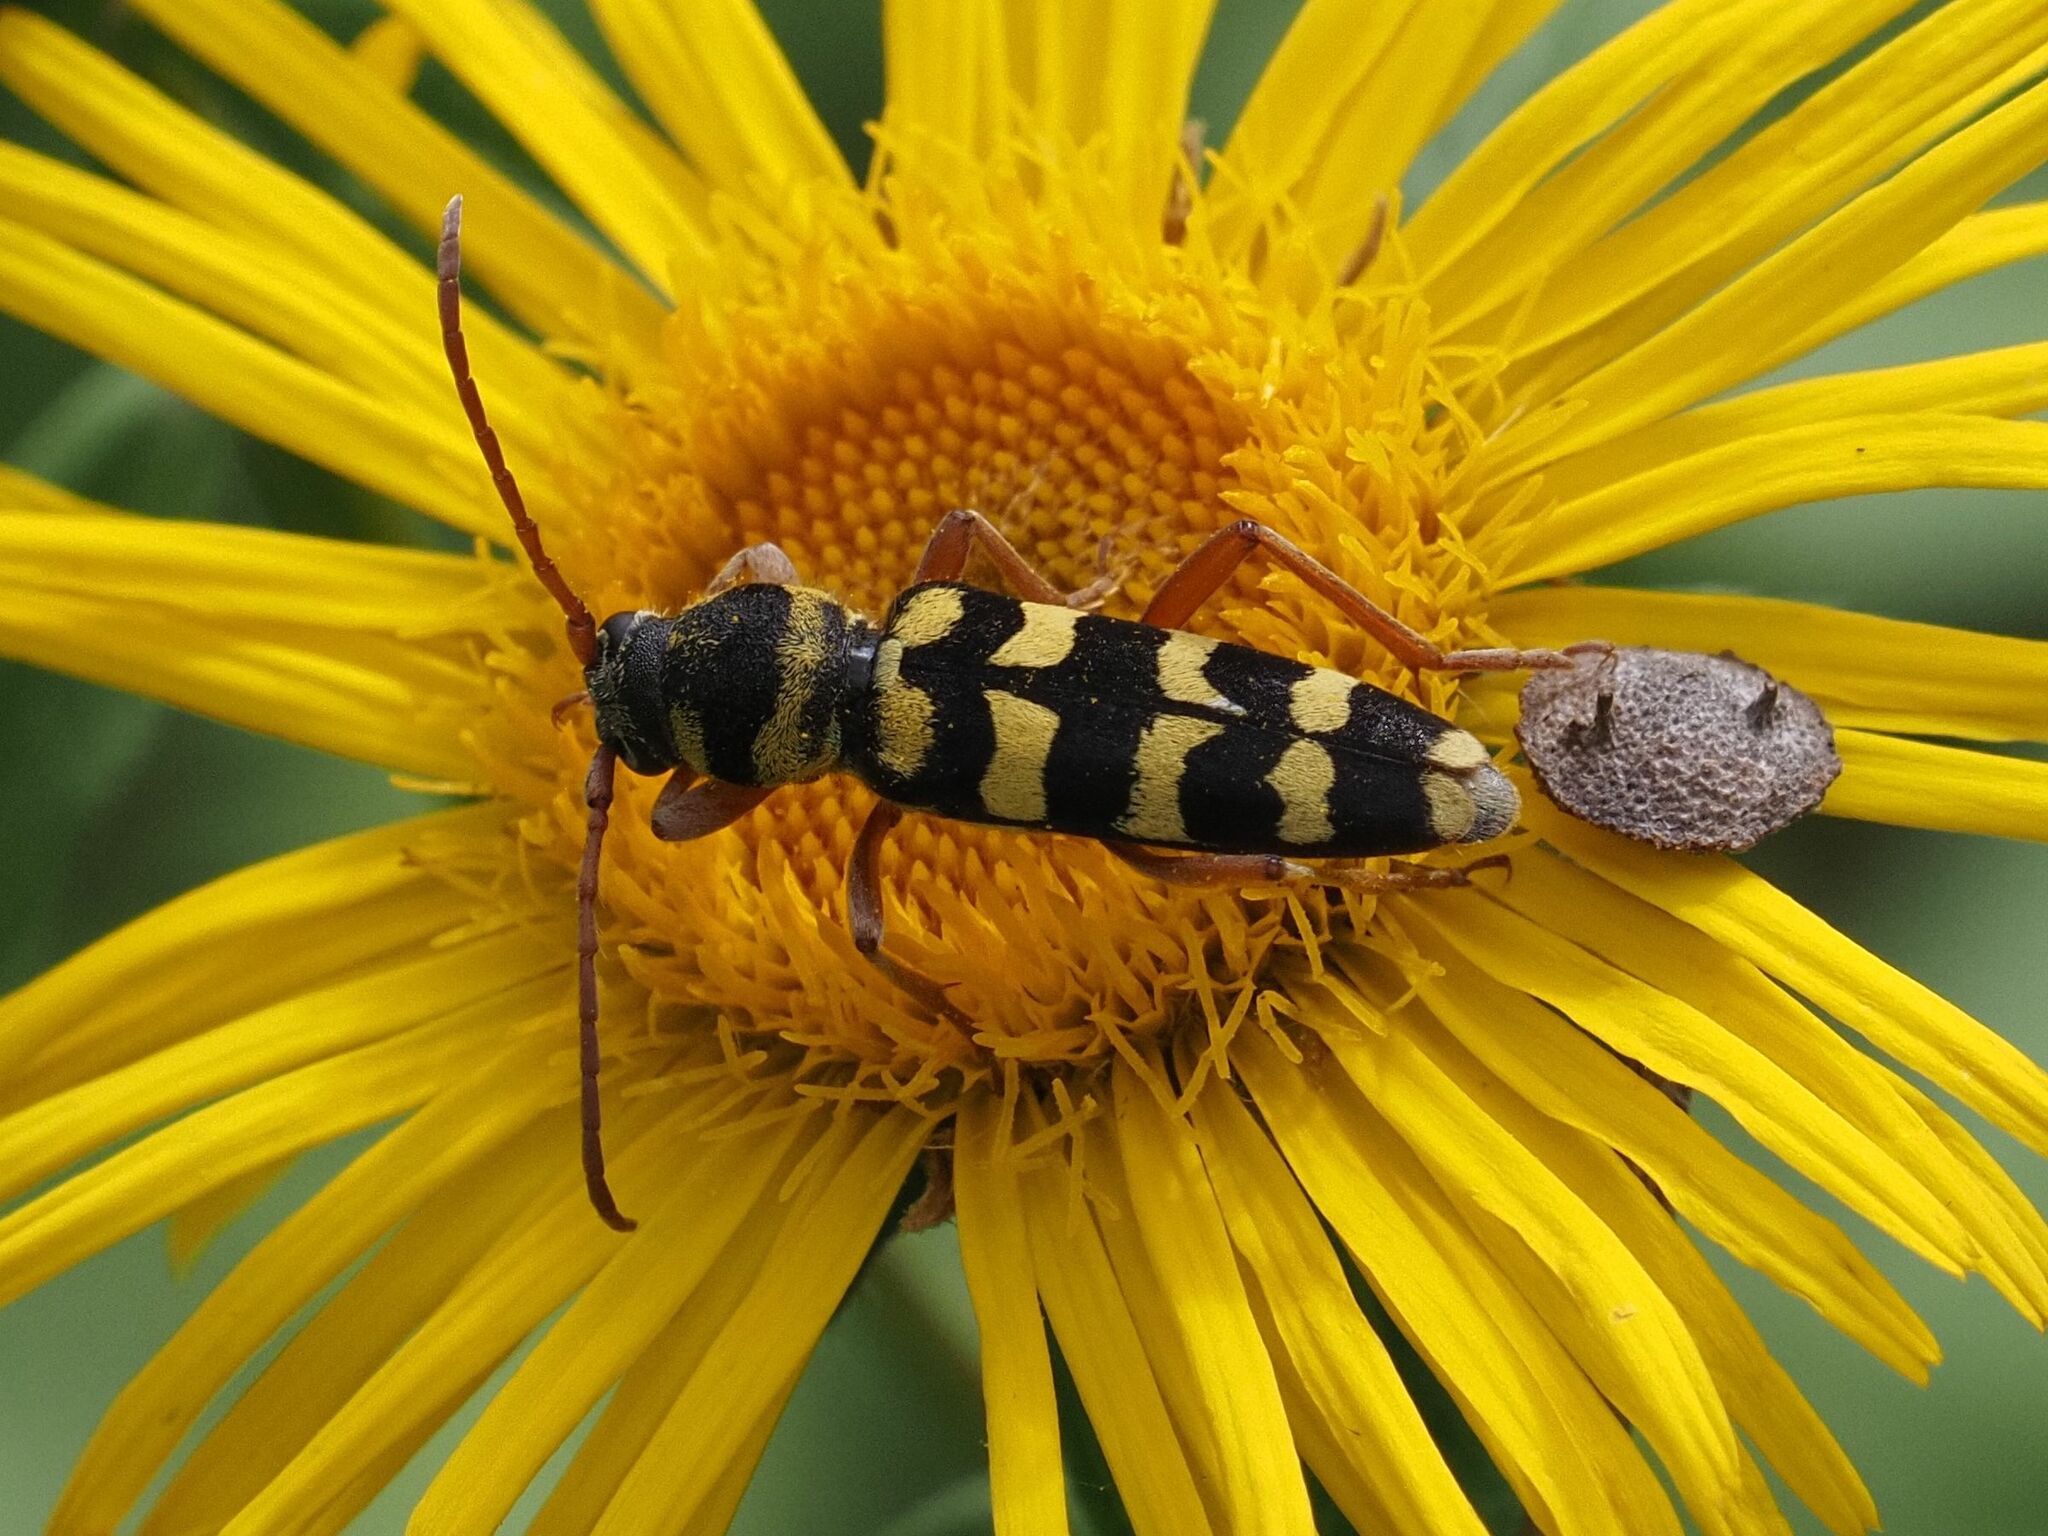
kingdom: Animalia
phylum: Arthropoda
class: Insecta
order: Coleoptera
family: Cerambycidae
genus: Plagionotus
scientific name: Plagionotus floralis
